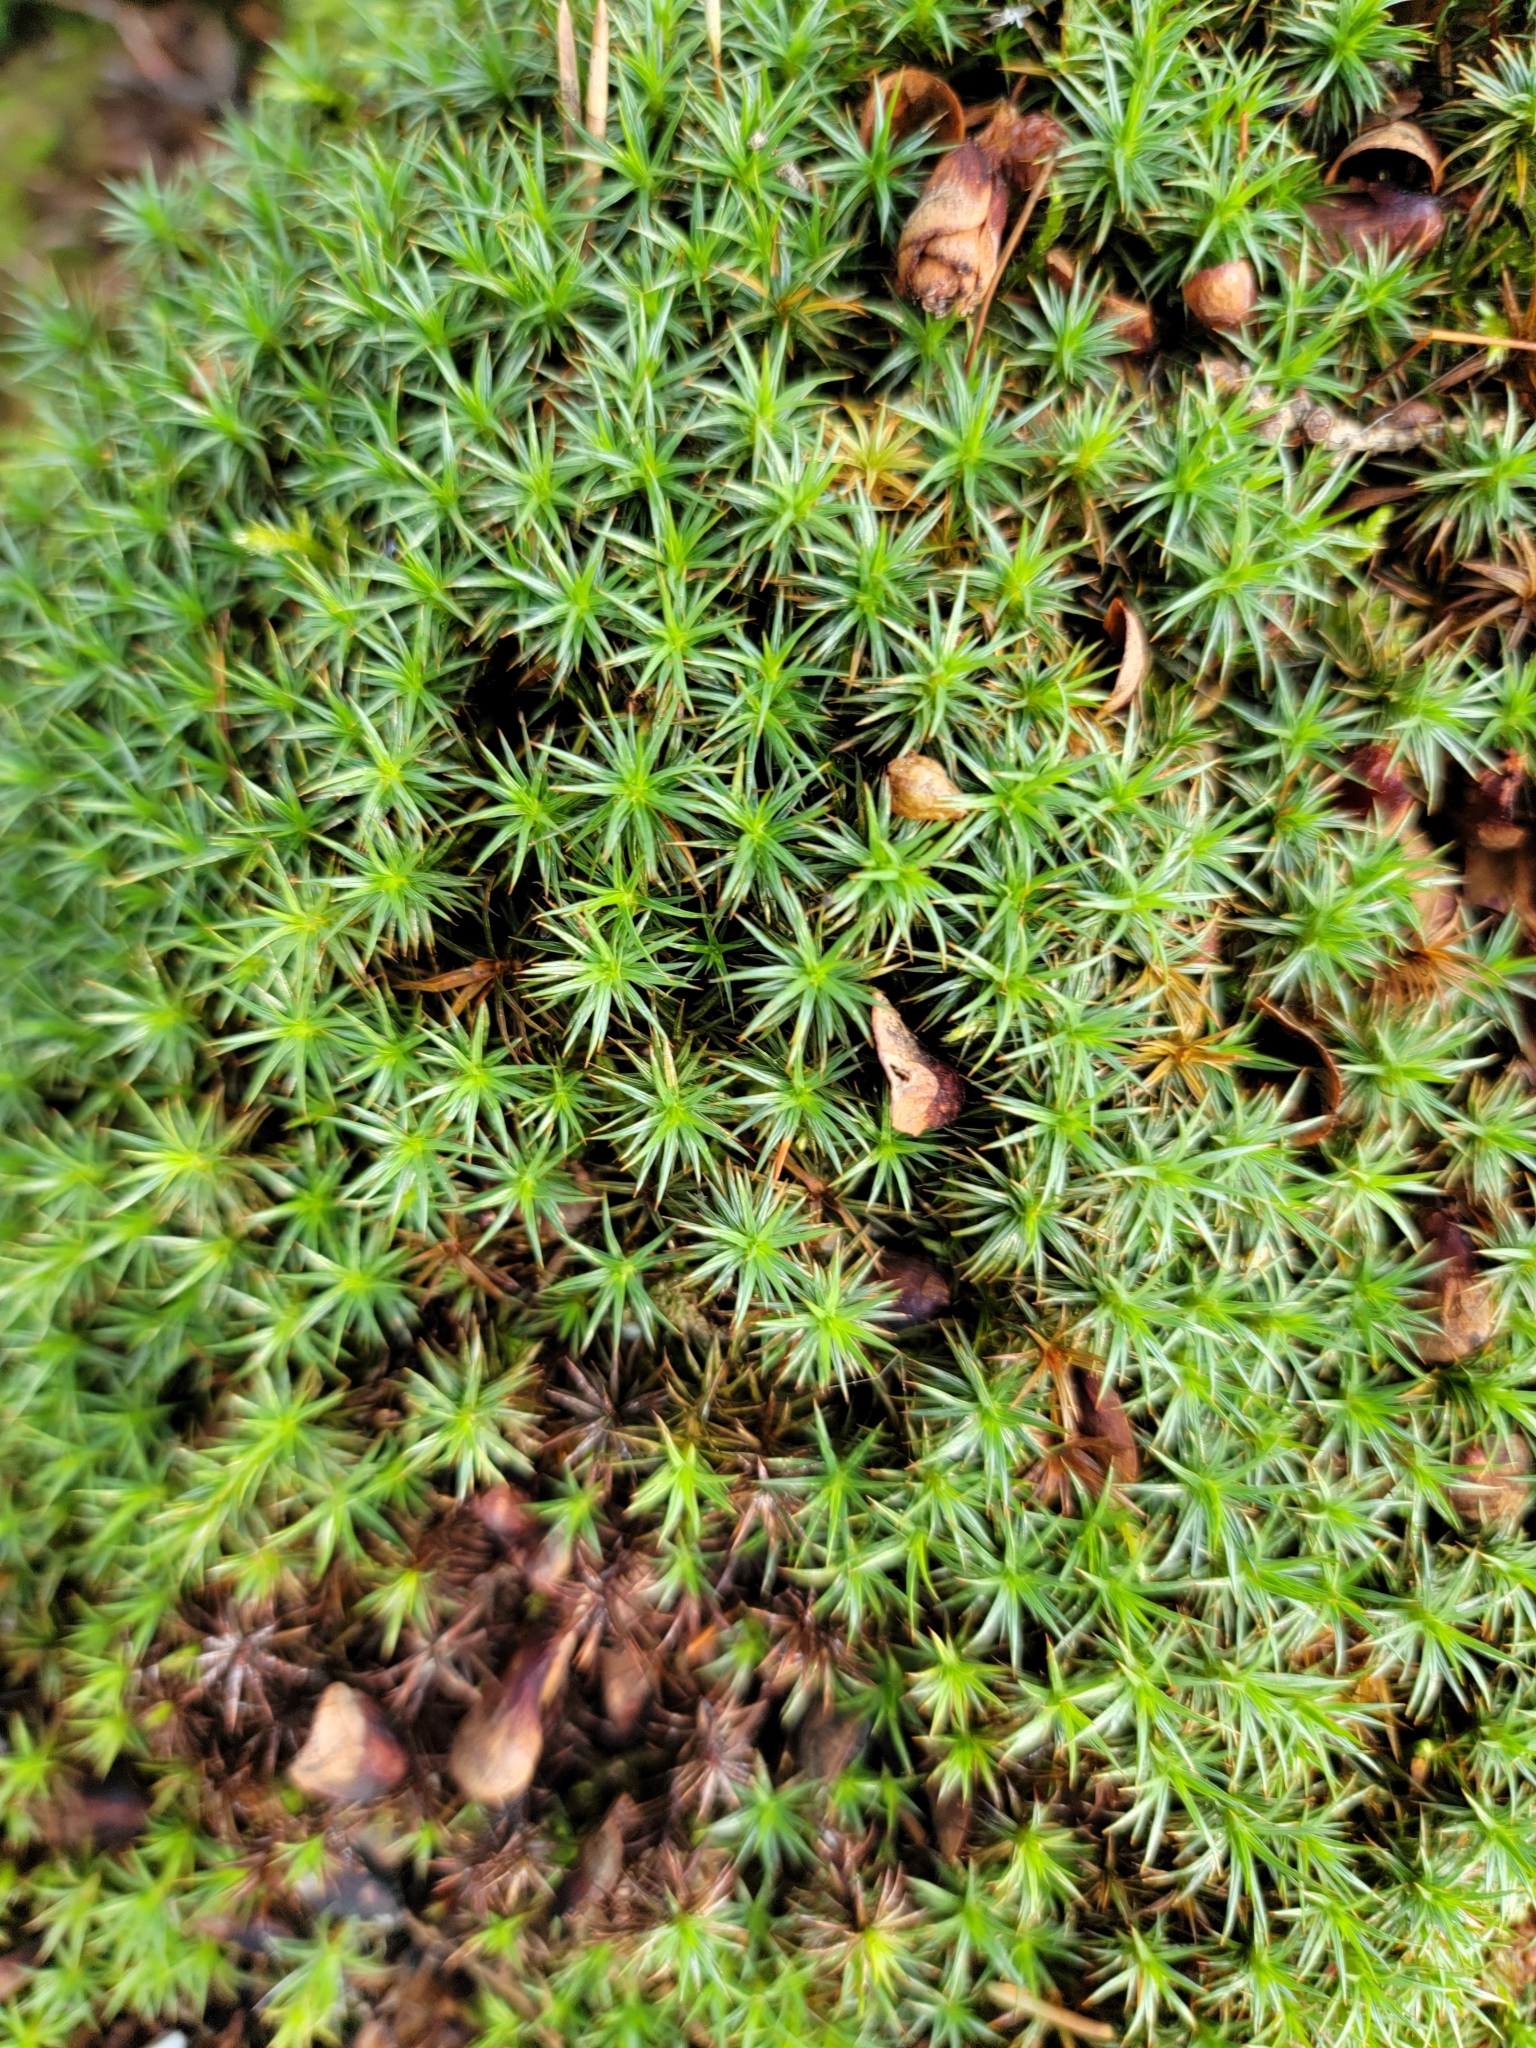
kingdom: Plantae
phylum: Bryophyta
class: Polytrichopsida
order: Polytrichales
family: Polytrichaceae
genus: Polytrichum
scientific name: Polytrichum juniperinum
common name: Juniper haircap moss
